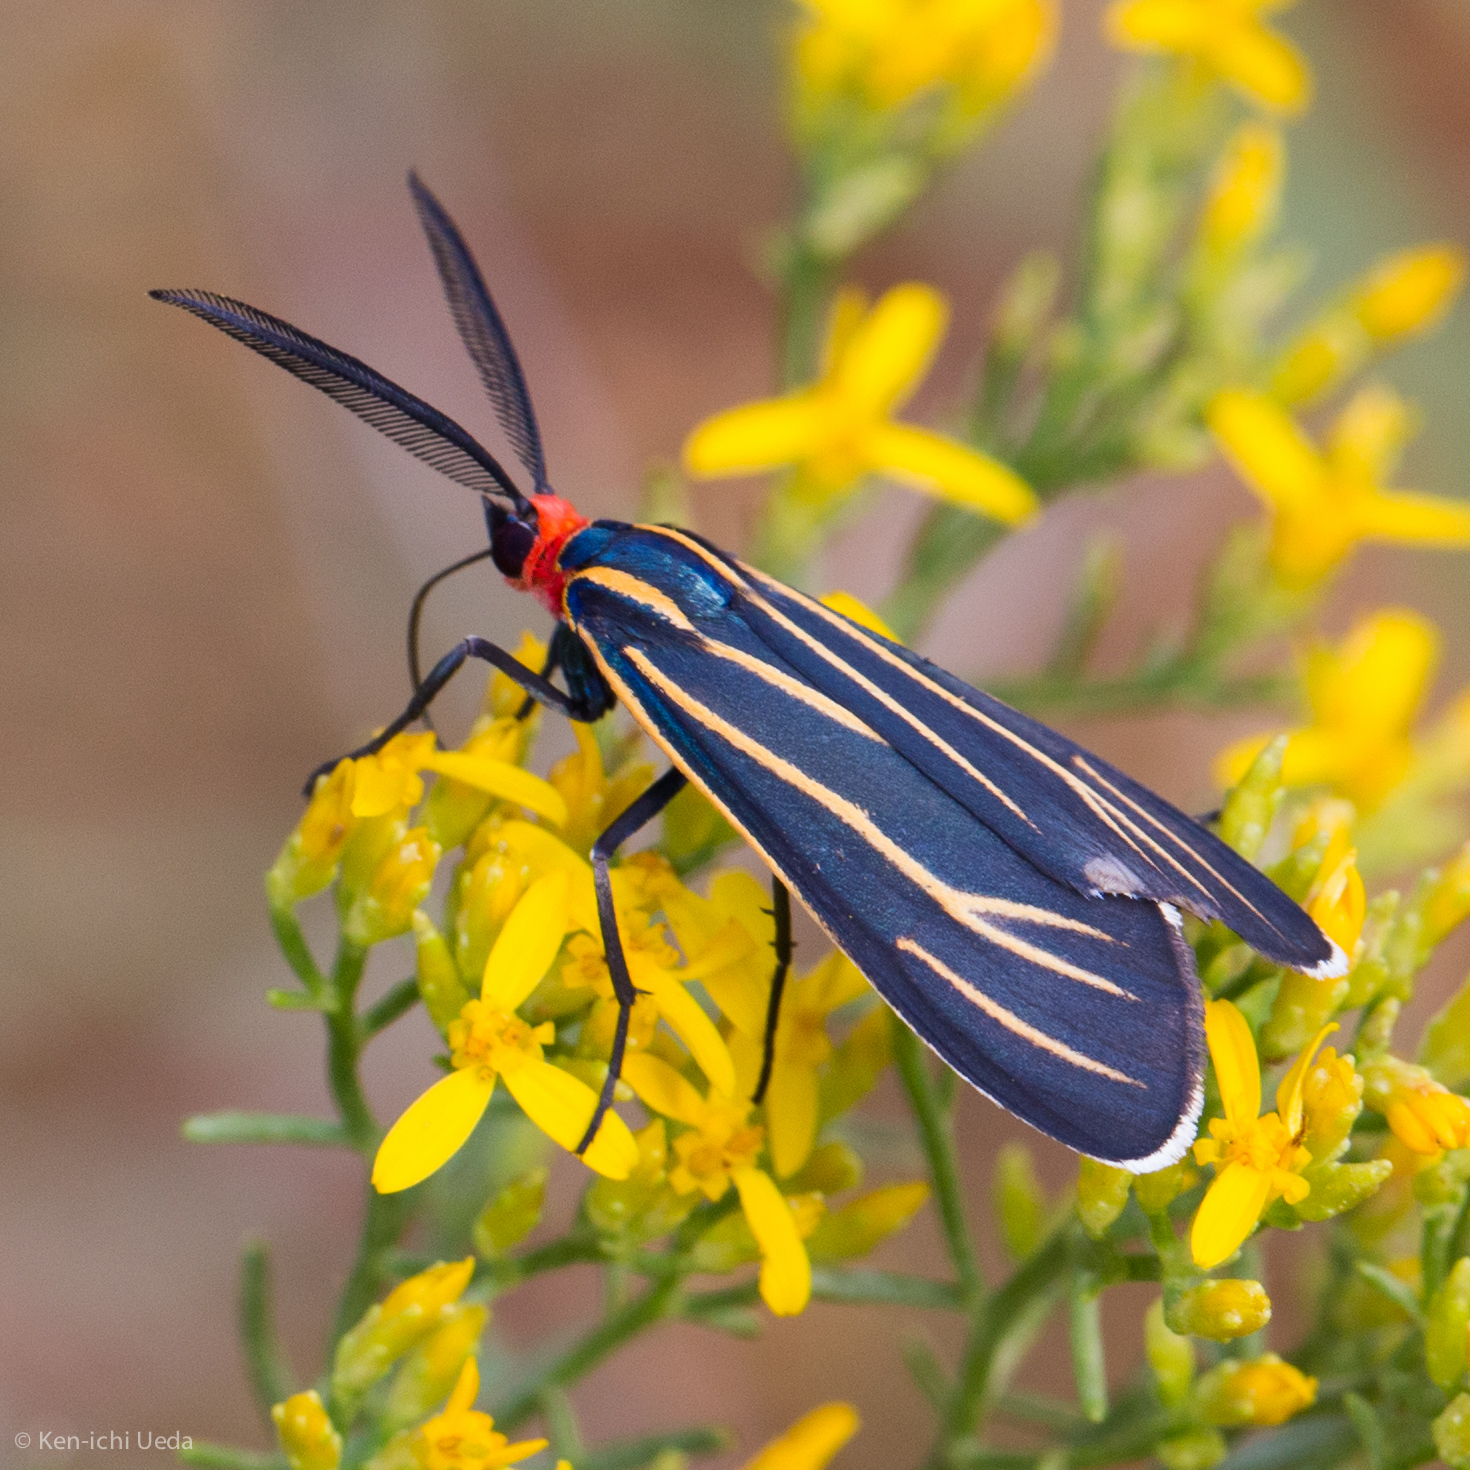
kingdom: Animalia
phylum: Arthropoda
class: Insecta
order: Lepidoptera
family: Erebidae
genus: Ctenucha
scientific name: Ctenucha venosa
